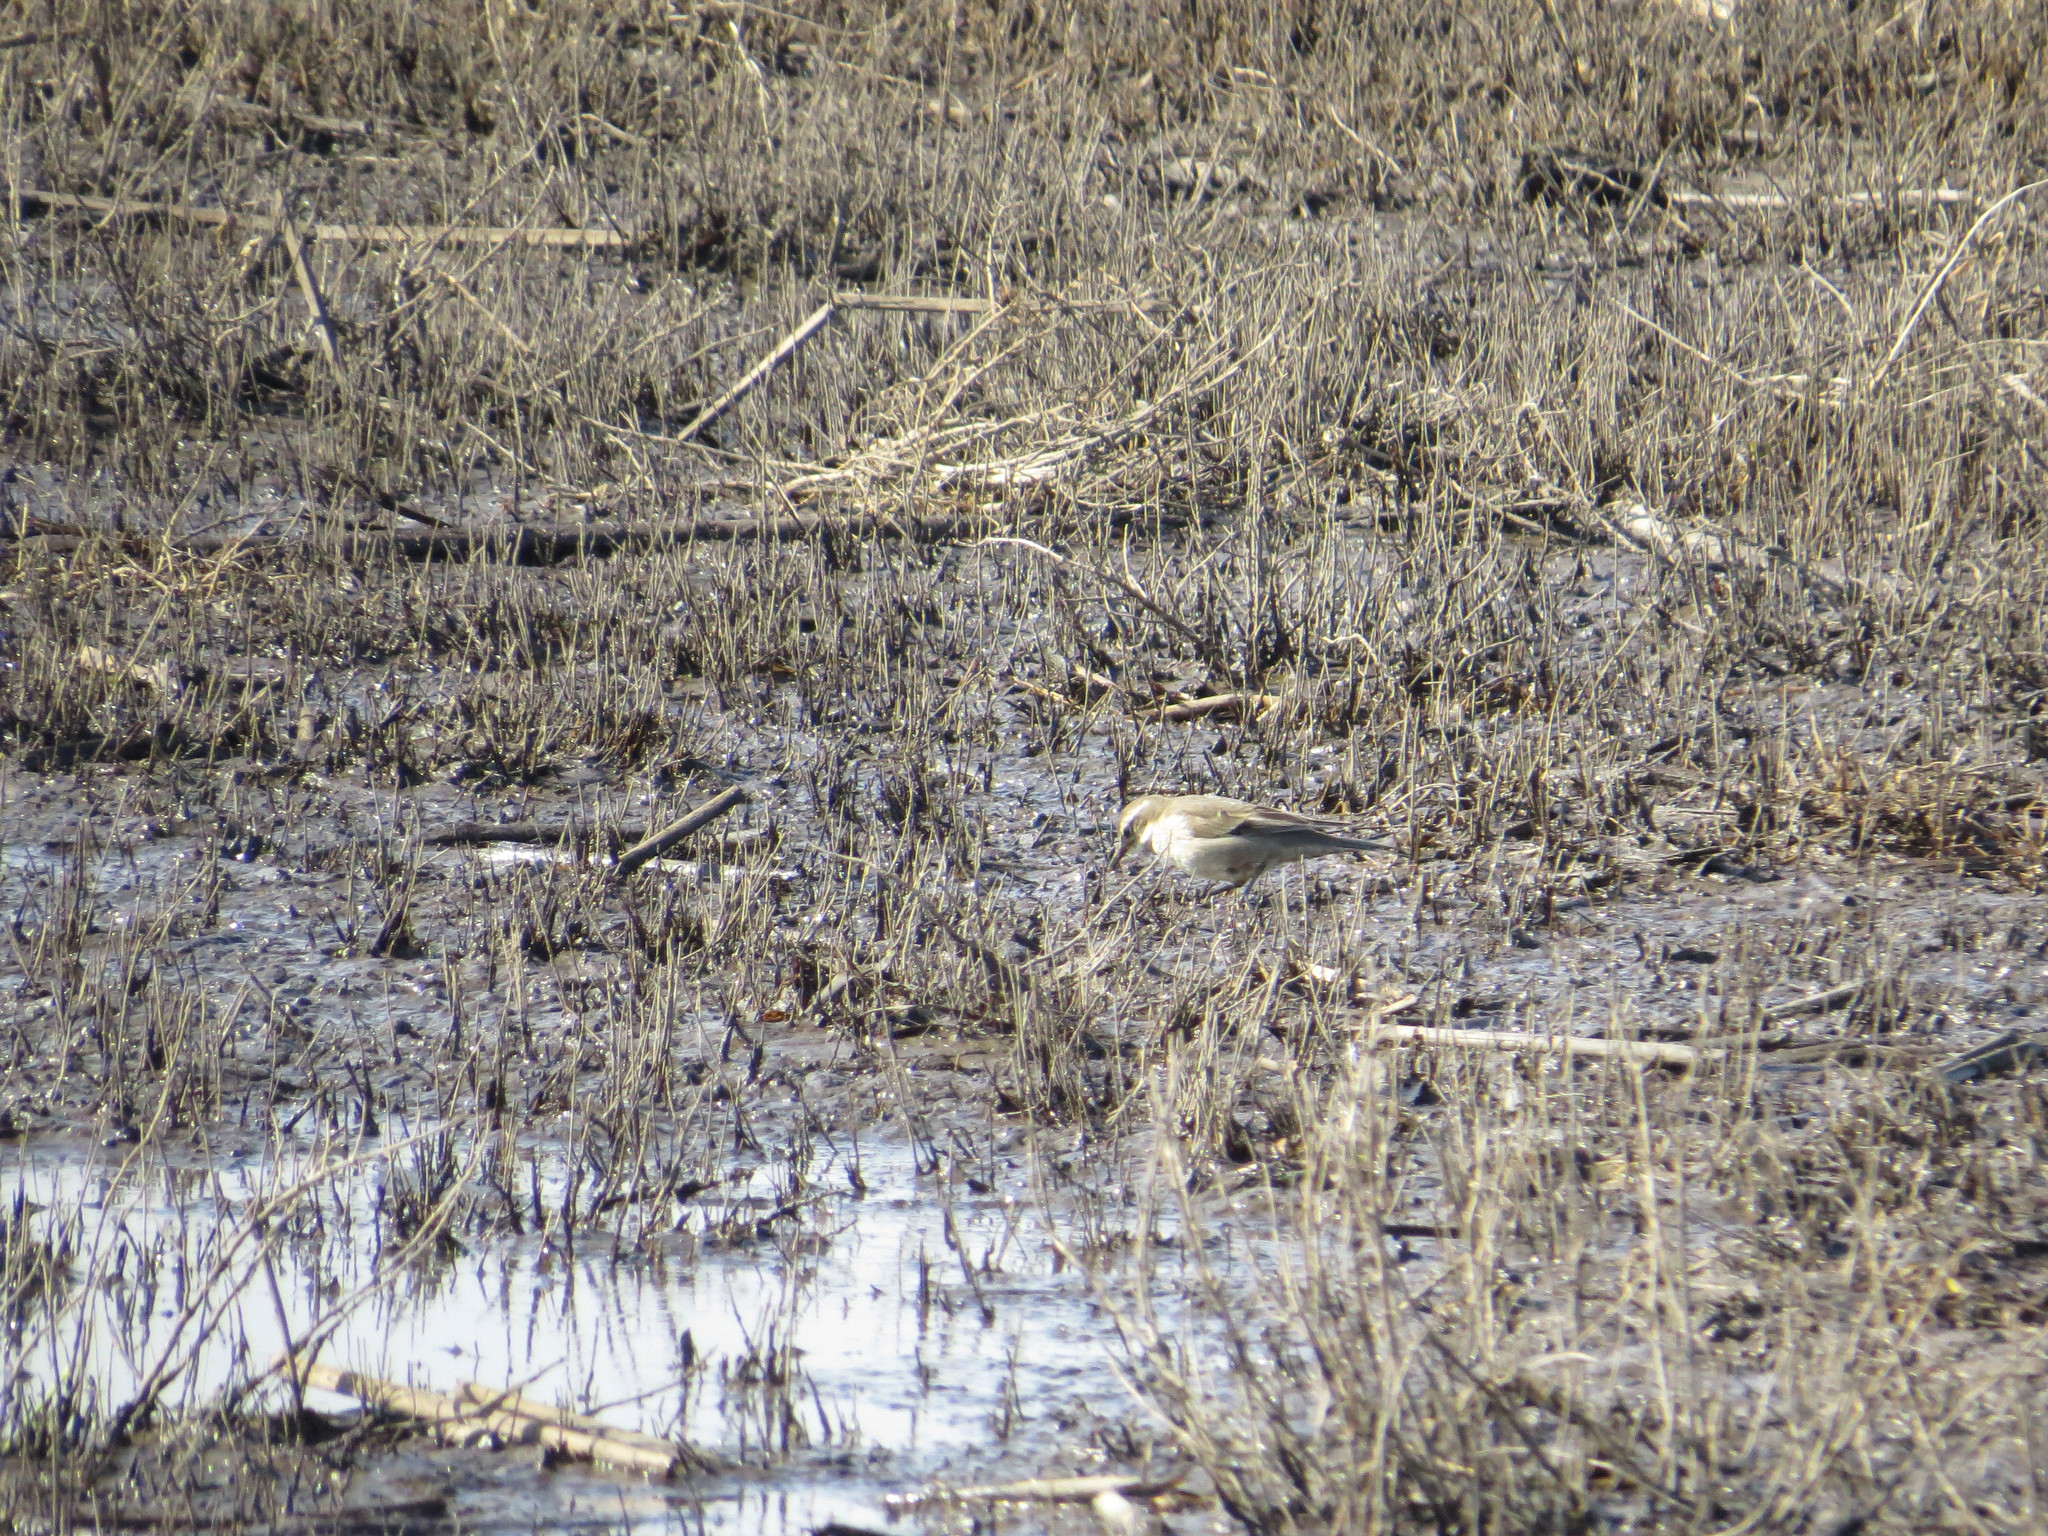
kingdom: Animalia
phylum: Chordata
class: Aves
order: Passeriformes
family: Furnariidae
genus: Cinclodes
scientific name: Cinclodes fuscus
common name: Buff-winged cinclodes
